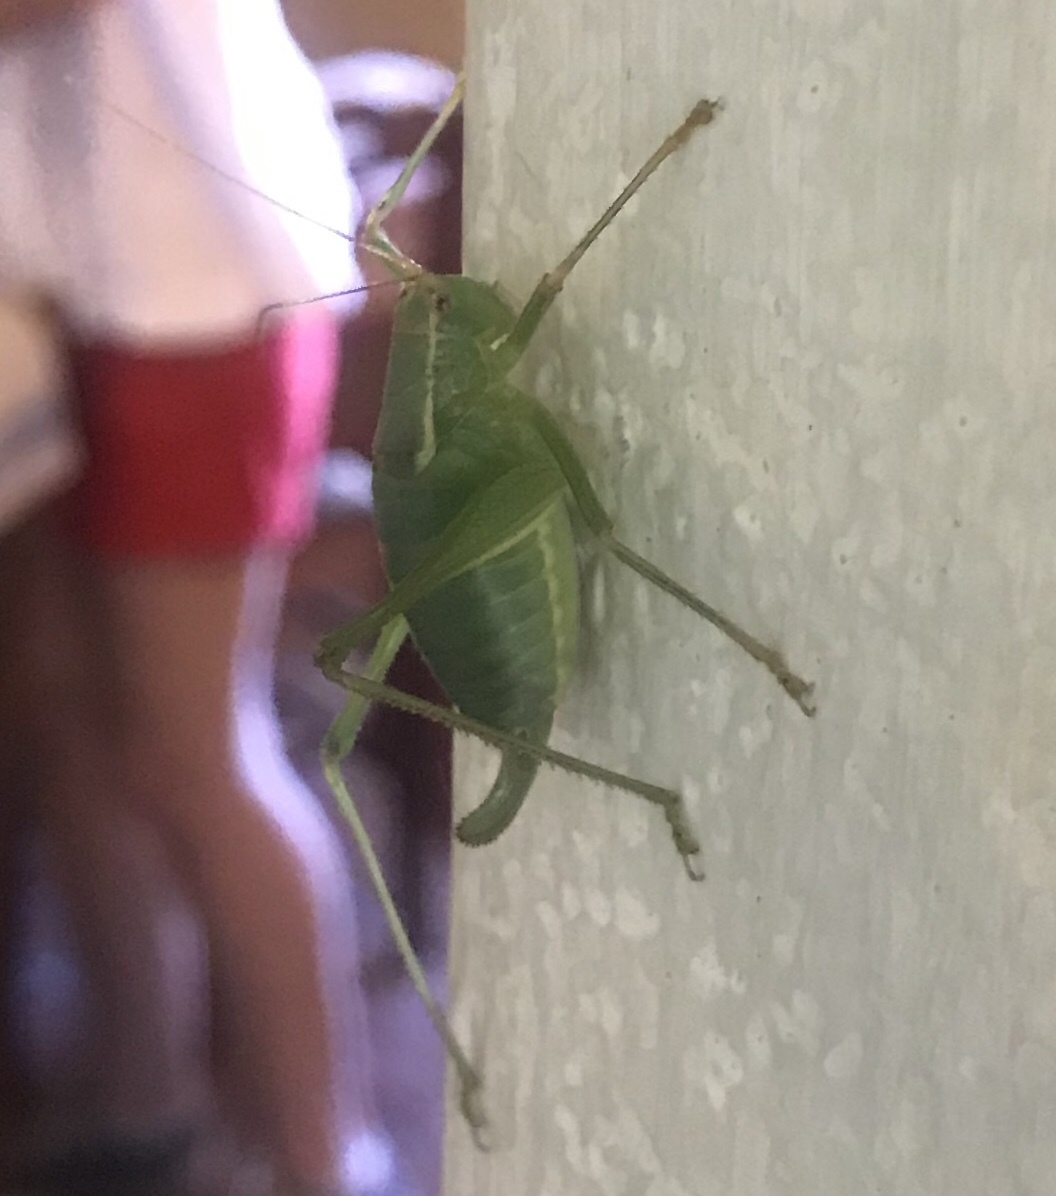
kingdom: Animalia
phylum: Arthropoda
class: Insecta
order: Orthoptera
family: Tettigoniidae
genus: Metaplastes
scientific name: Metaplastes pulchripennis
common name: Italian ornate bush-cricket
